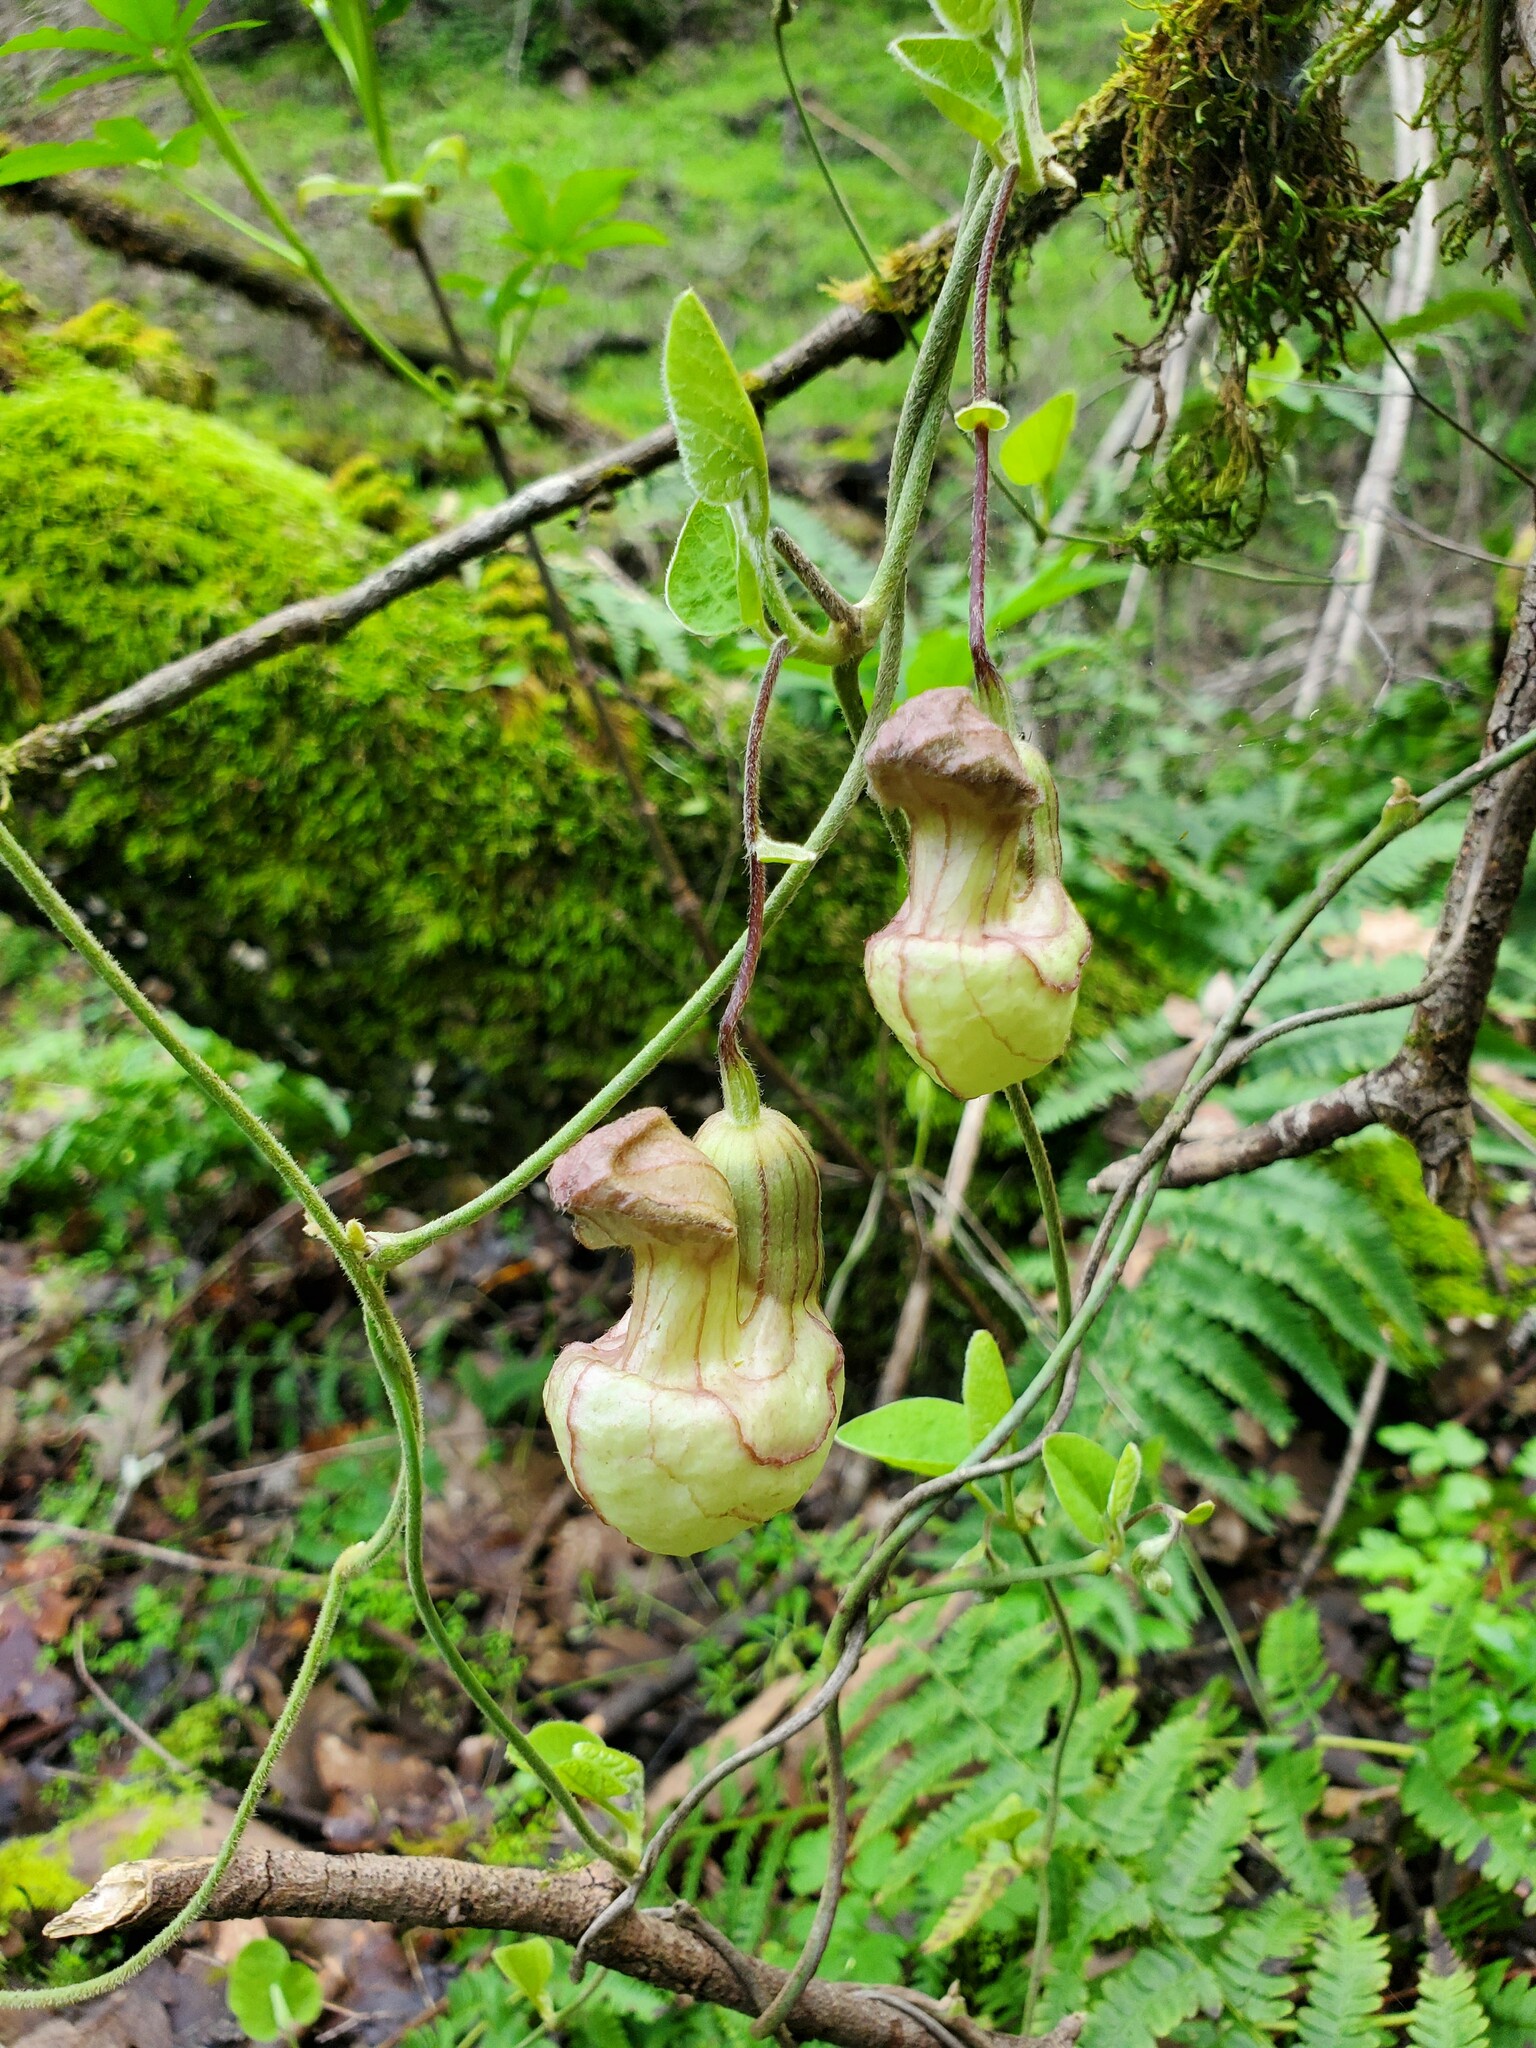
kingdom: Plantae
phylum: Tracheophyta
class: Magnoliopsida
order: Piperales
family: Aristolochiaceae
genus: Isotrema
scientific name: Isotrema californicum
